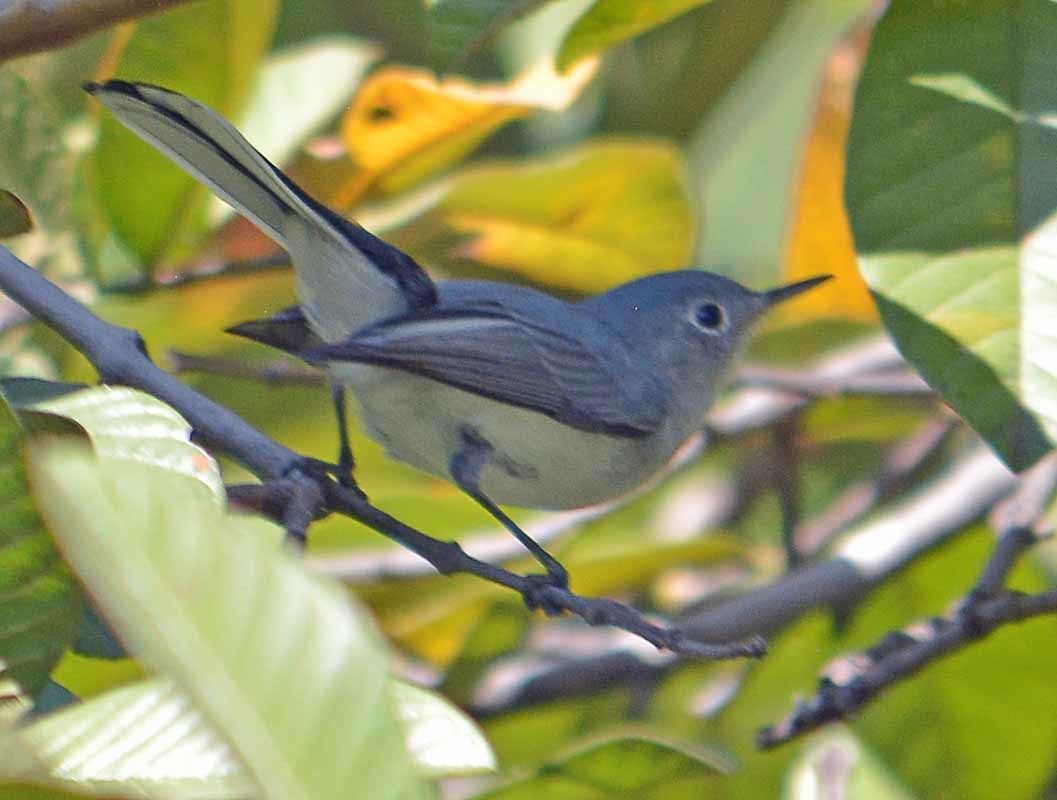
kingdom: Animalia
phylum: Chordata
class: Aves
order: Passeriformes
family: Polioptilidae
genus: Polioptila
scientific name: Polioptila caerulea
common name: Blue-gray gnatcatcher
